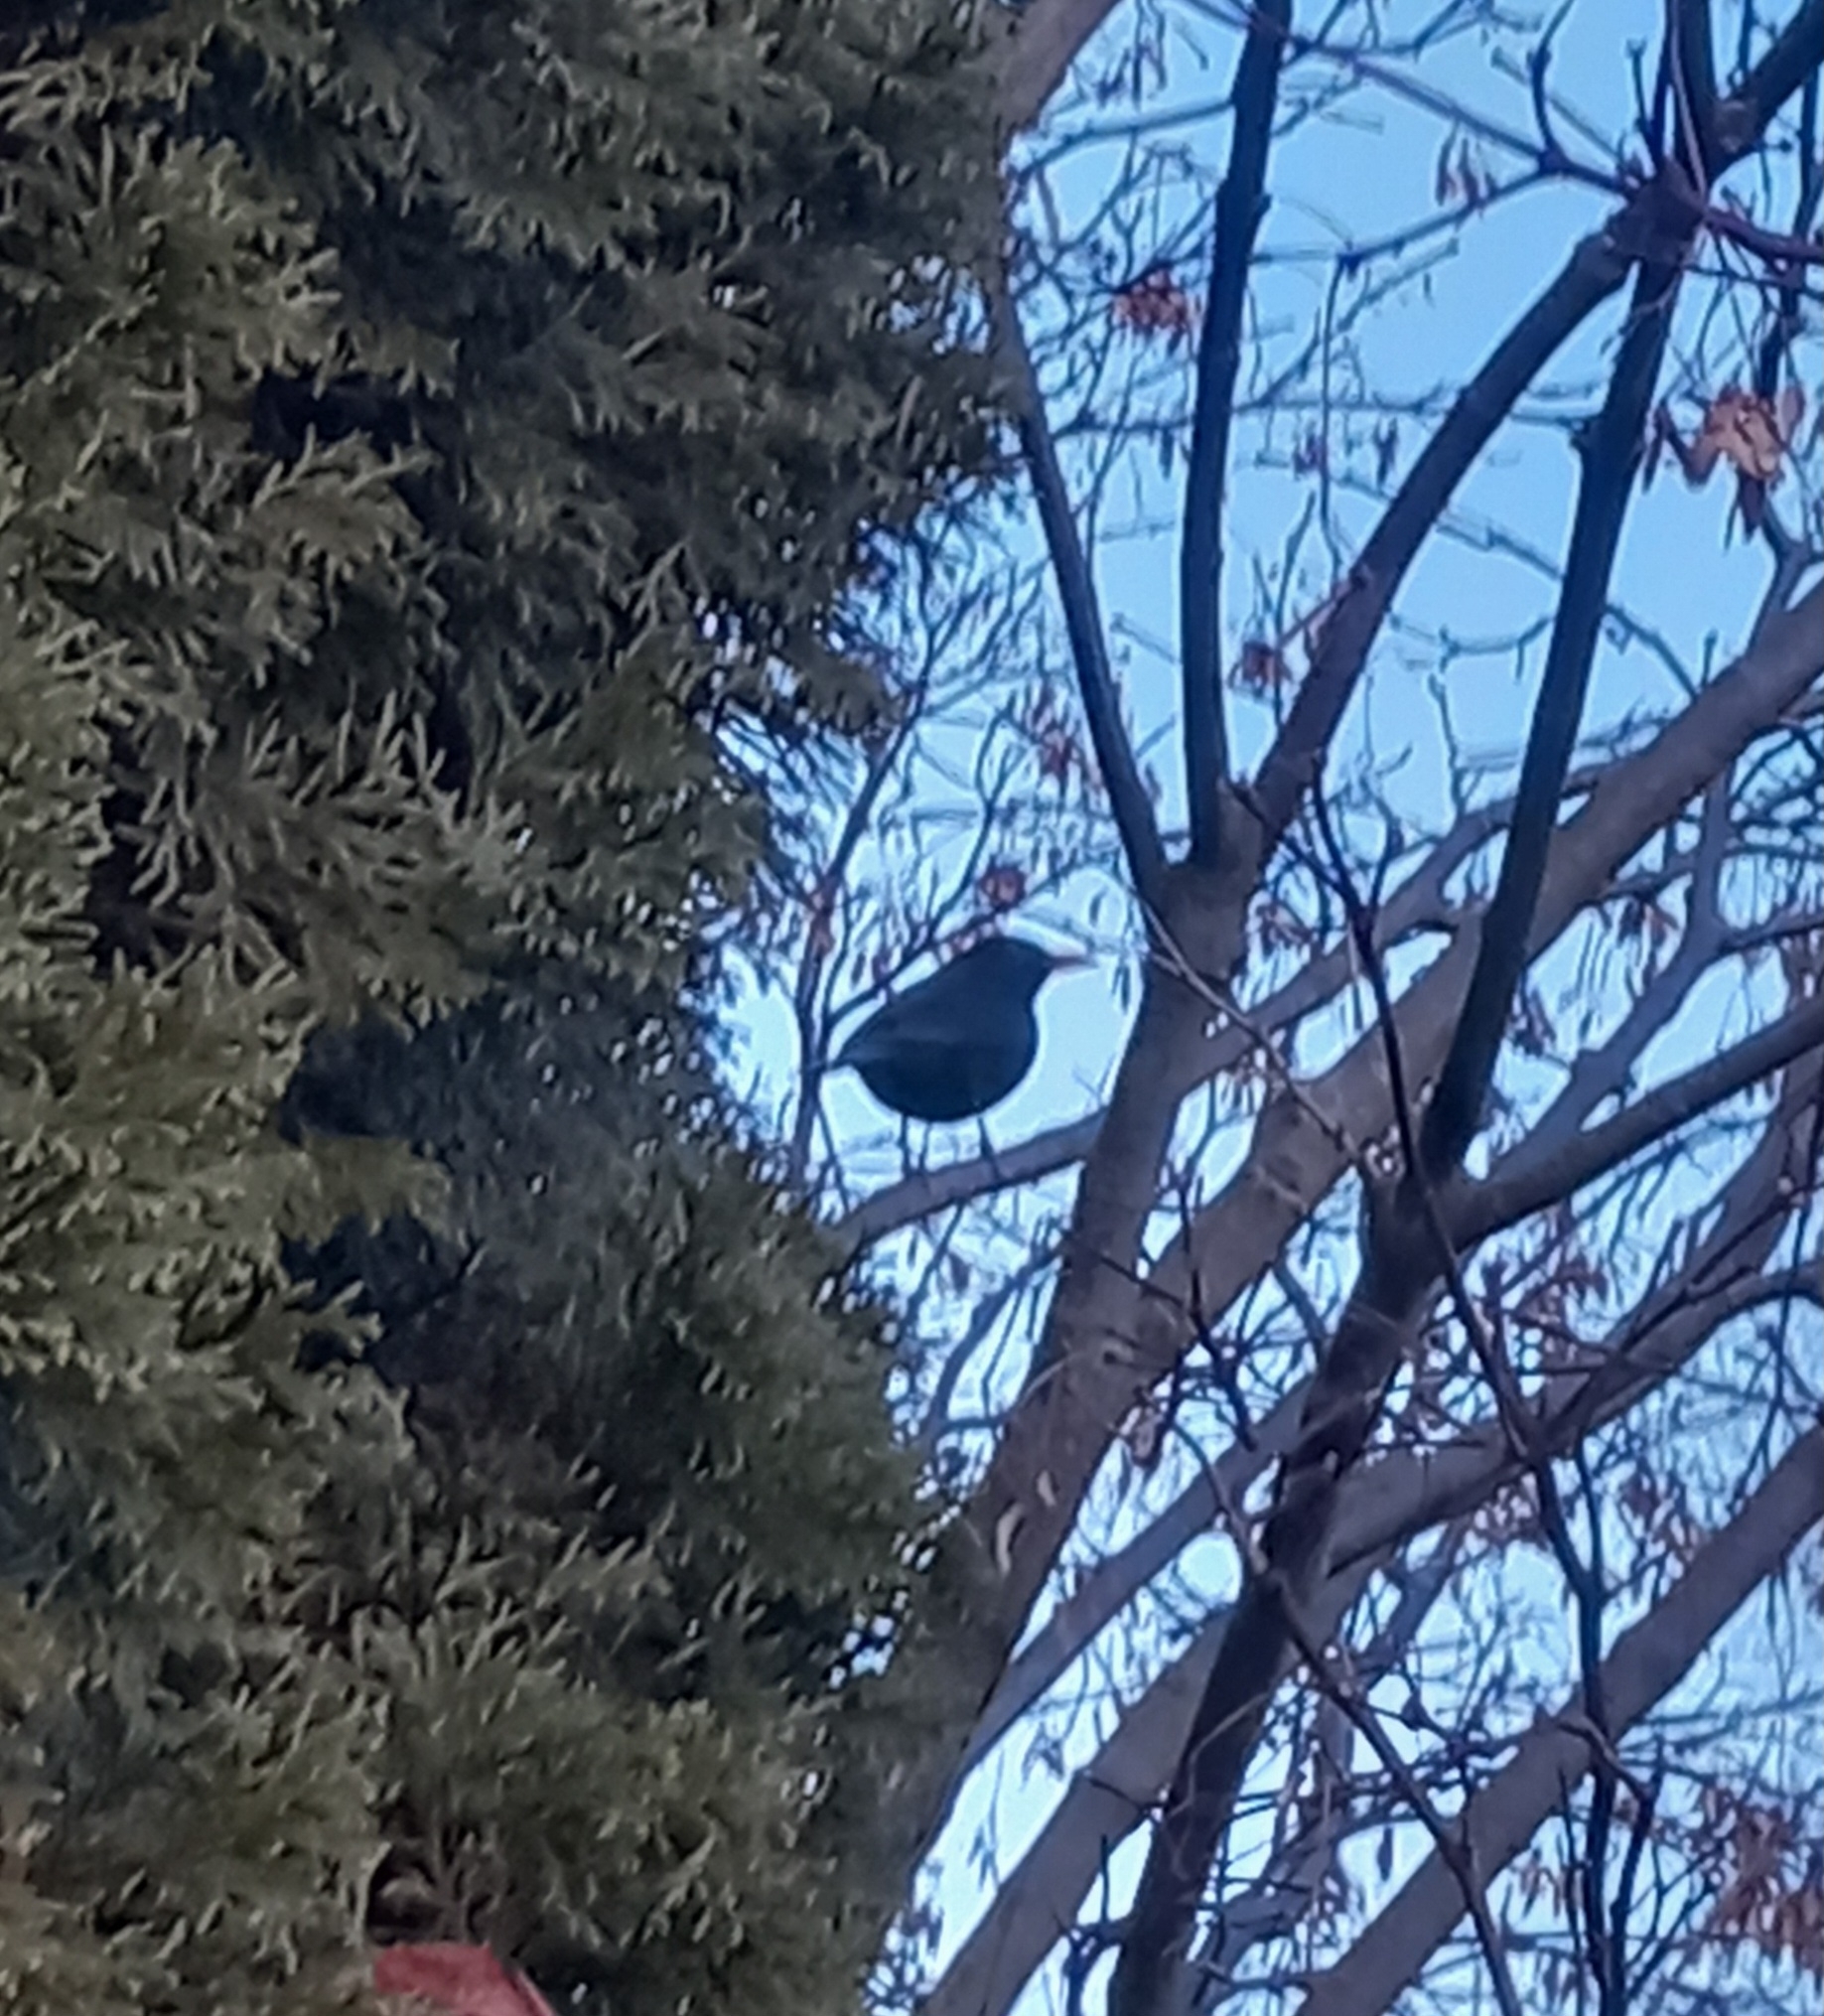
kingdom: Animalia
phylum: Chordata
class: Aves
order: Passeriformes
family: Turdidae
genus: Turdus
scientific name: Turdus merula
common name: Common blackbird
